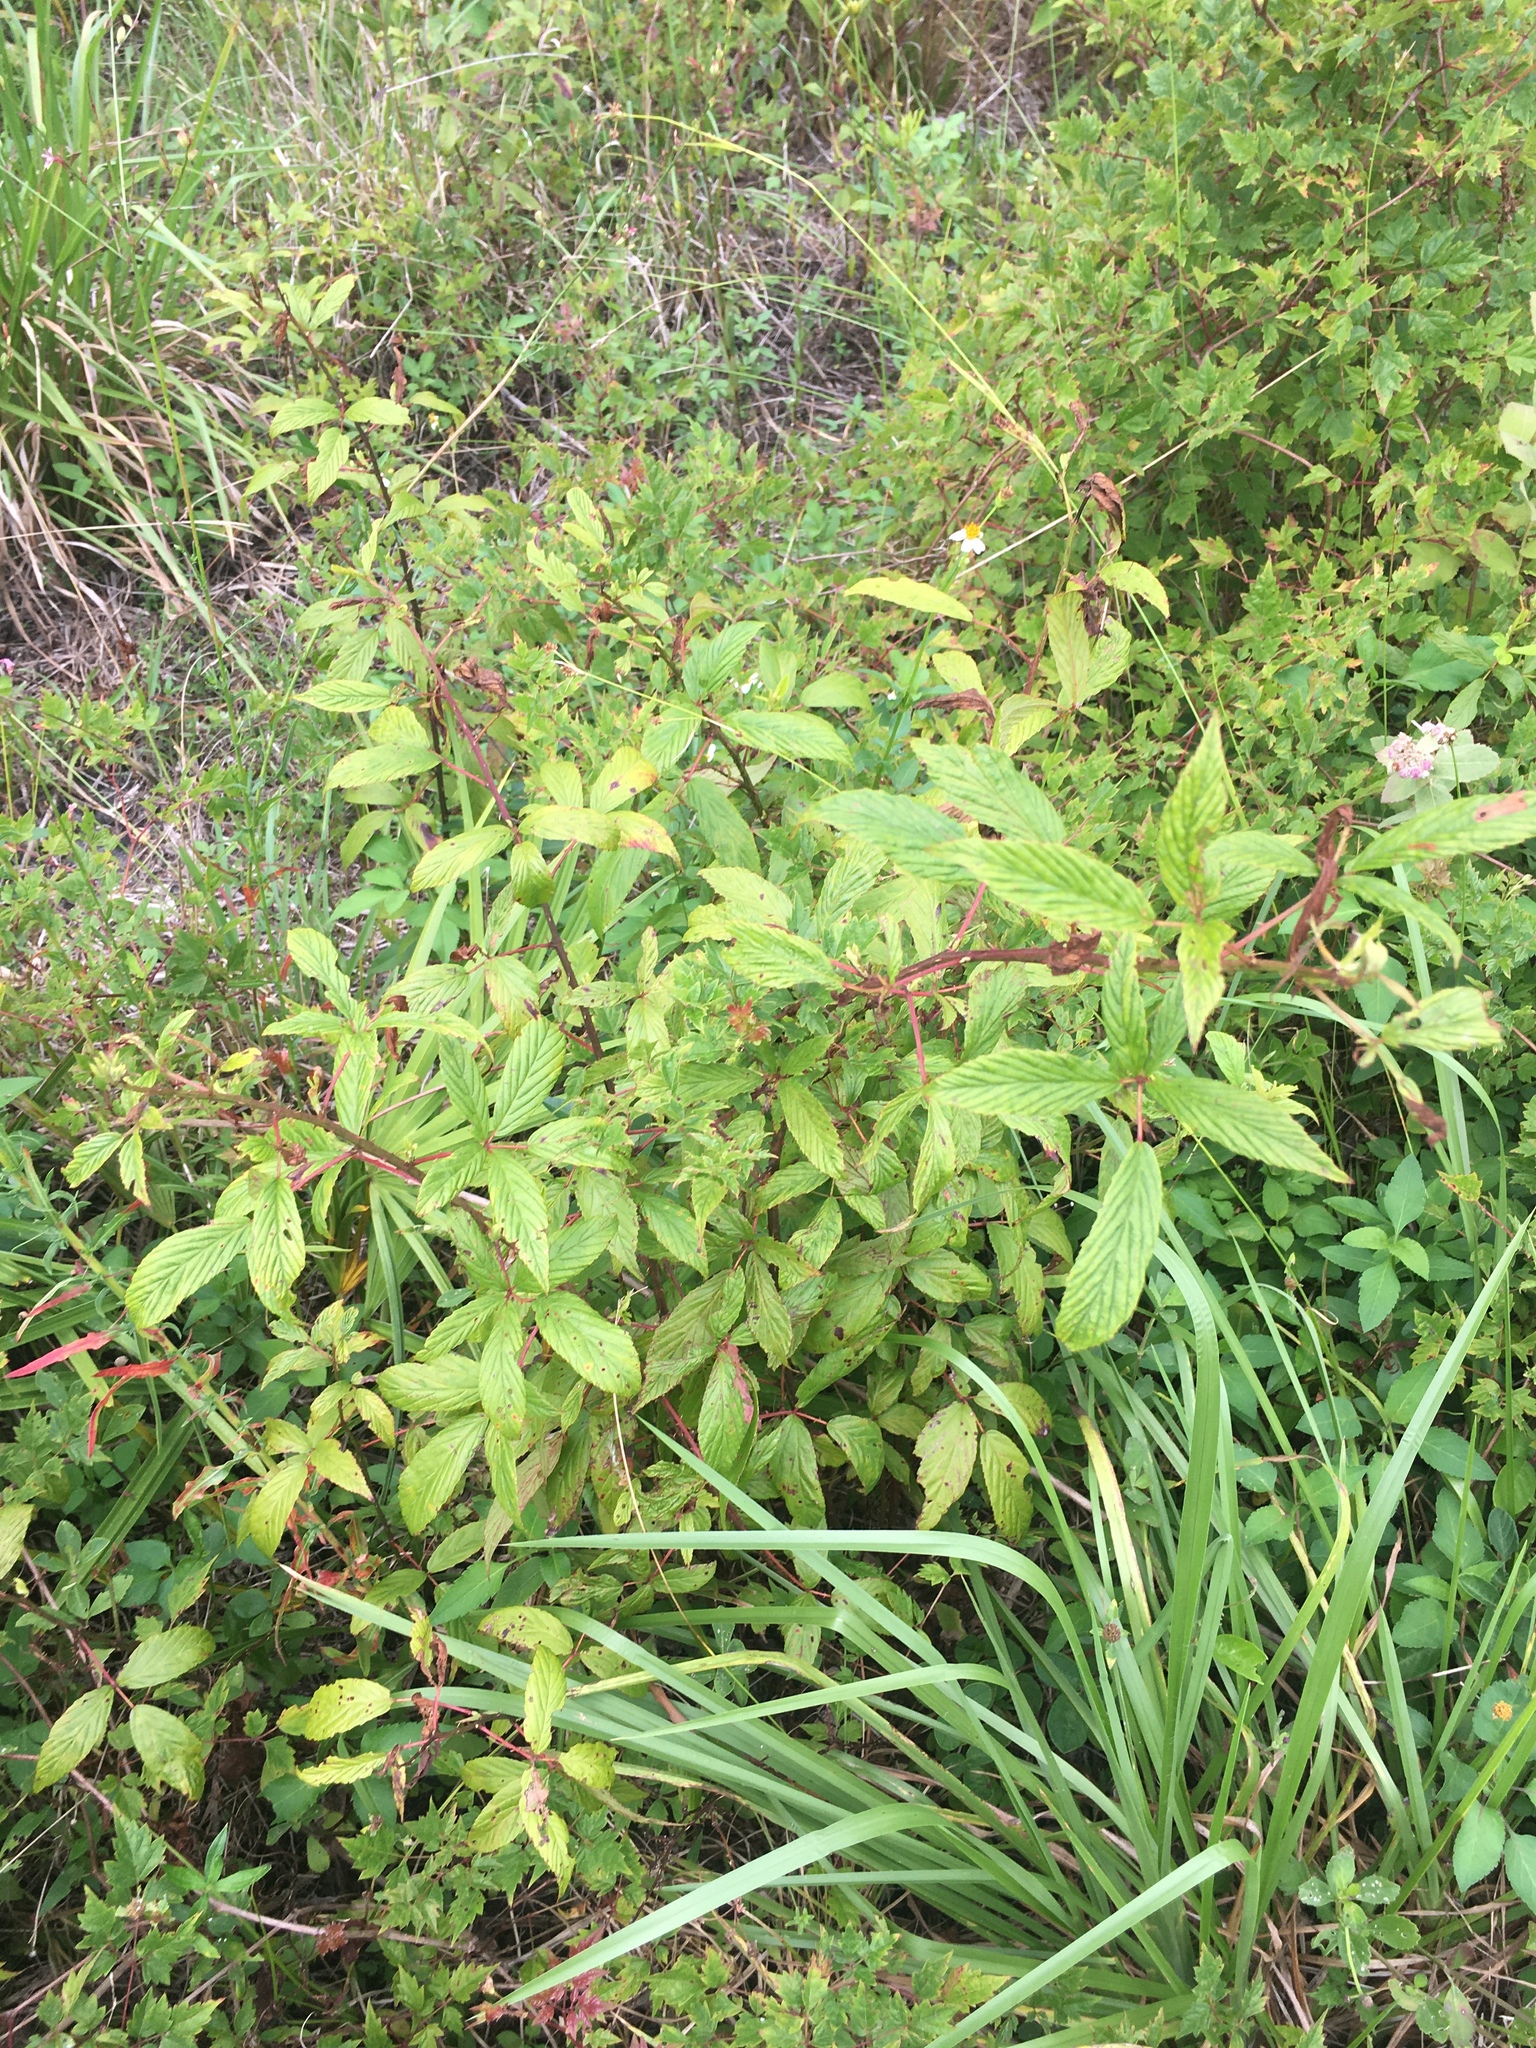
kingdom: Plantae
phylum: Tracheophyta
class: Magnoliopsida
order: Rosales
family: Rosaceae
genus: Rubus
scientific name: Rubus pensilvanicus
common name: Pennsylvania blackberry
